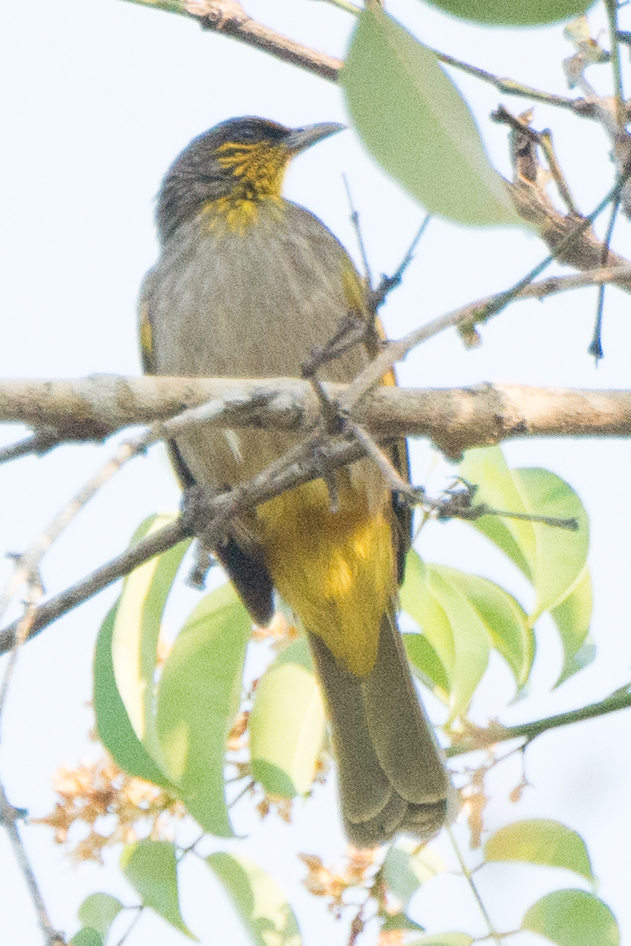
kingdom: Animalia
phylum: Chordata
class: Aves
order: Passeriformes
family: Pycnonotidae
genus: Pycnonotus
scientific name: Pycnonotus finlaysoni
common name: Stripe-throated bulbul
